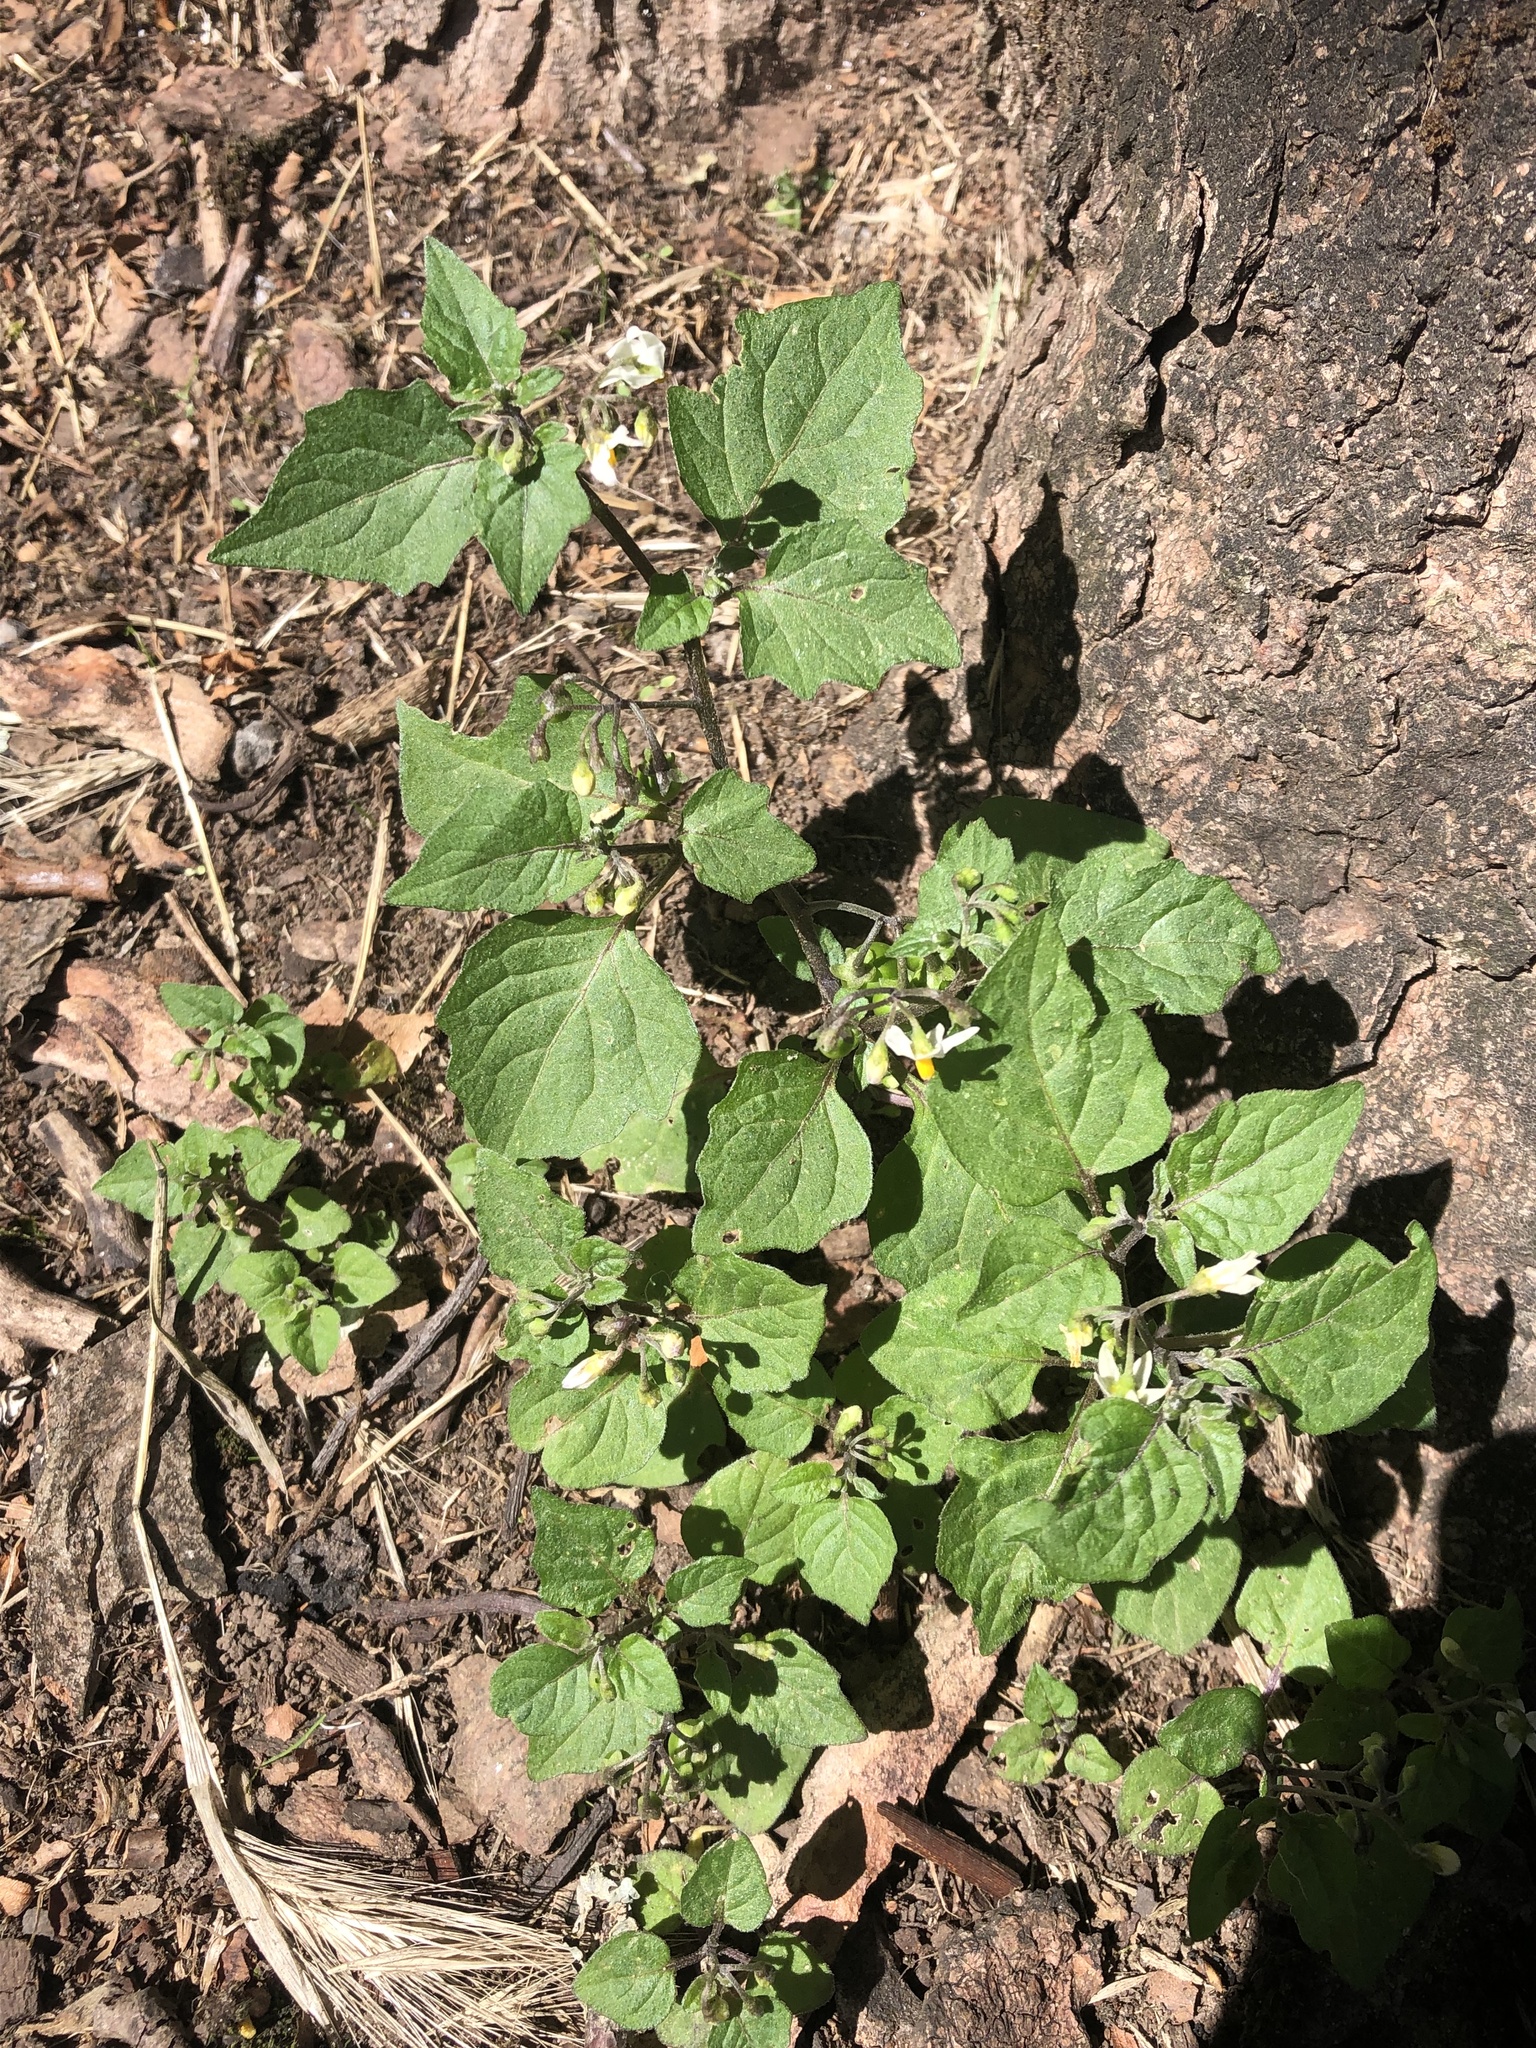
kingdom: Plantae
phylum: Tracheophyta
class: Magnoliopsida
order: Solanales
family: Solanaceae
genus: Solanum
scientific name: Solanum nigrum
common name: Black nightshade
